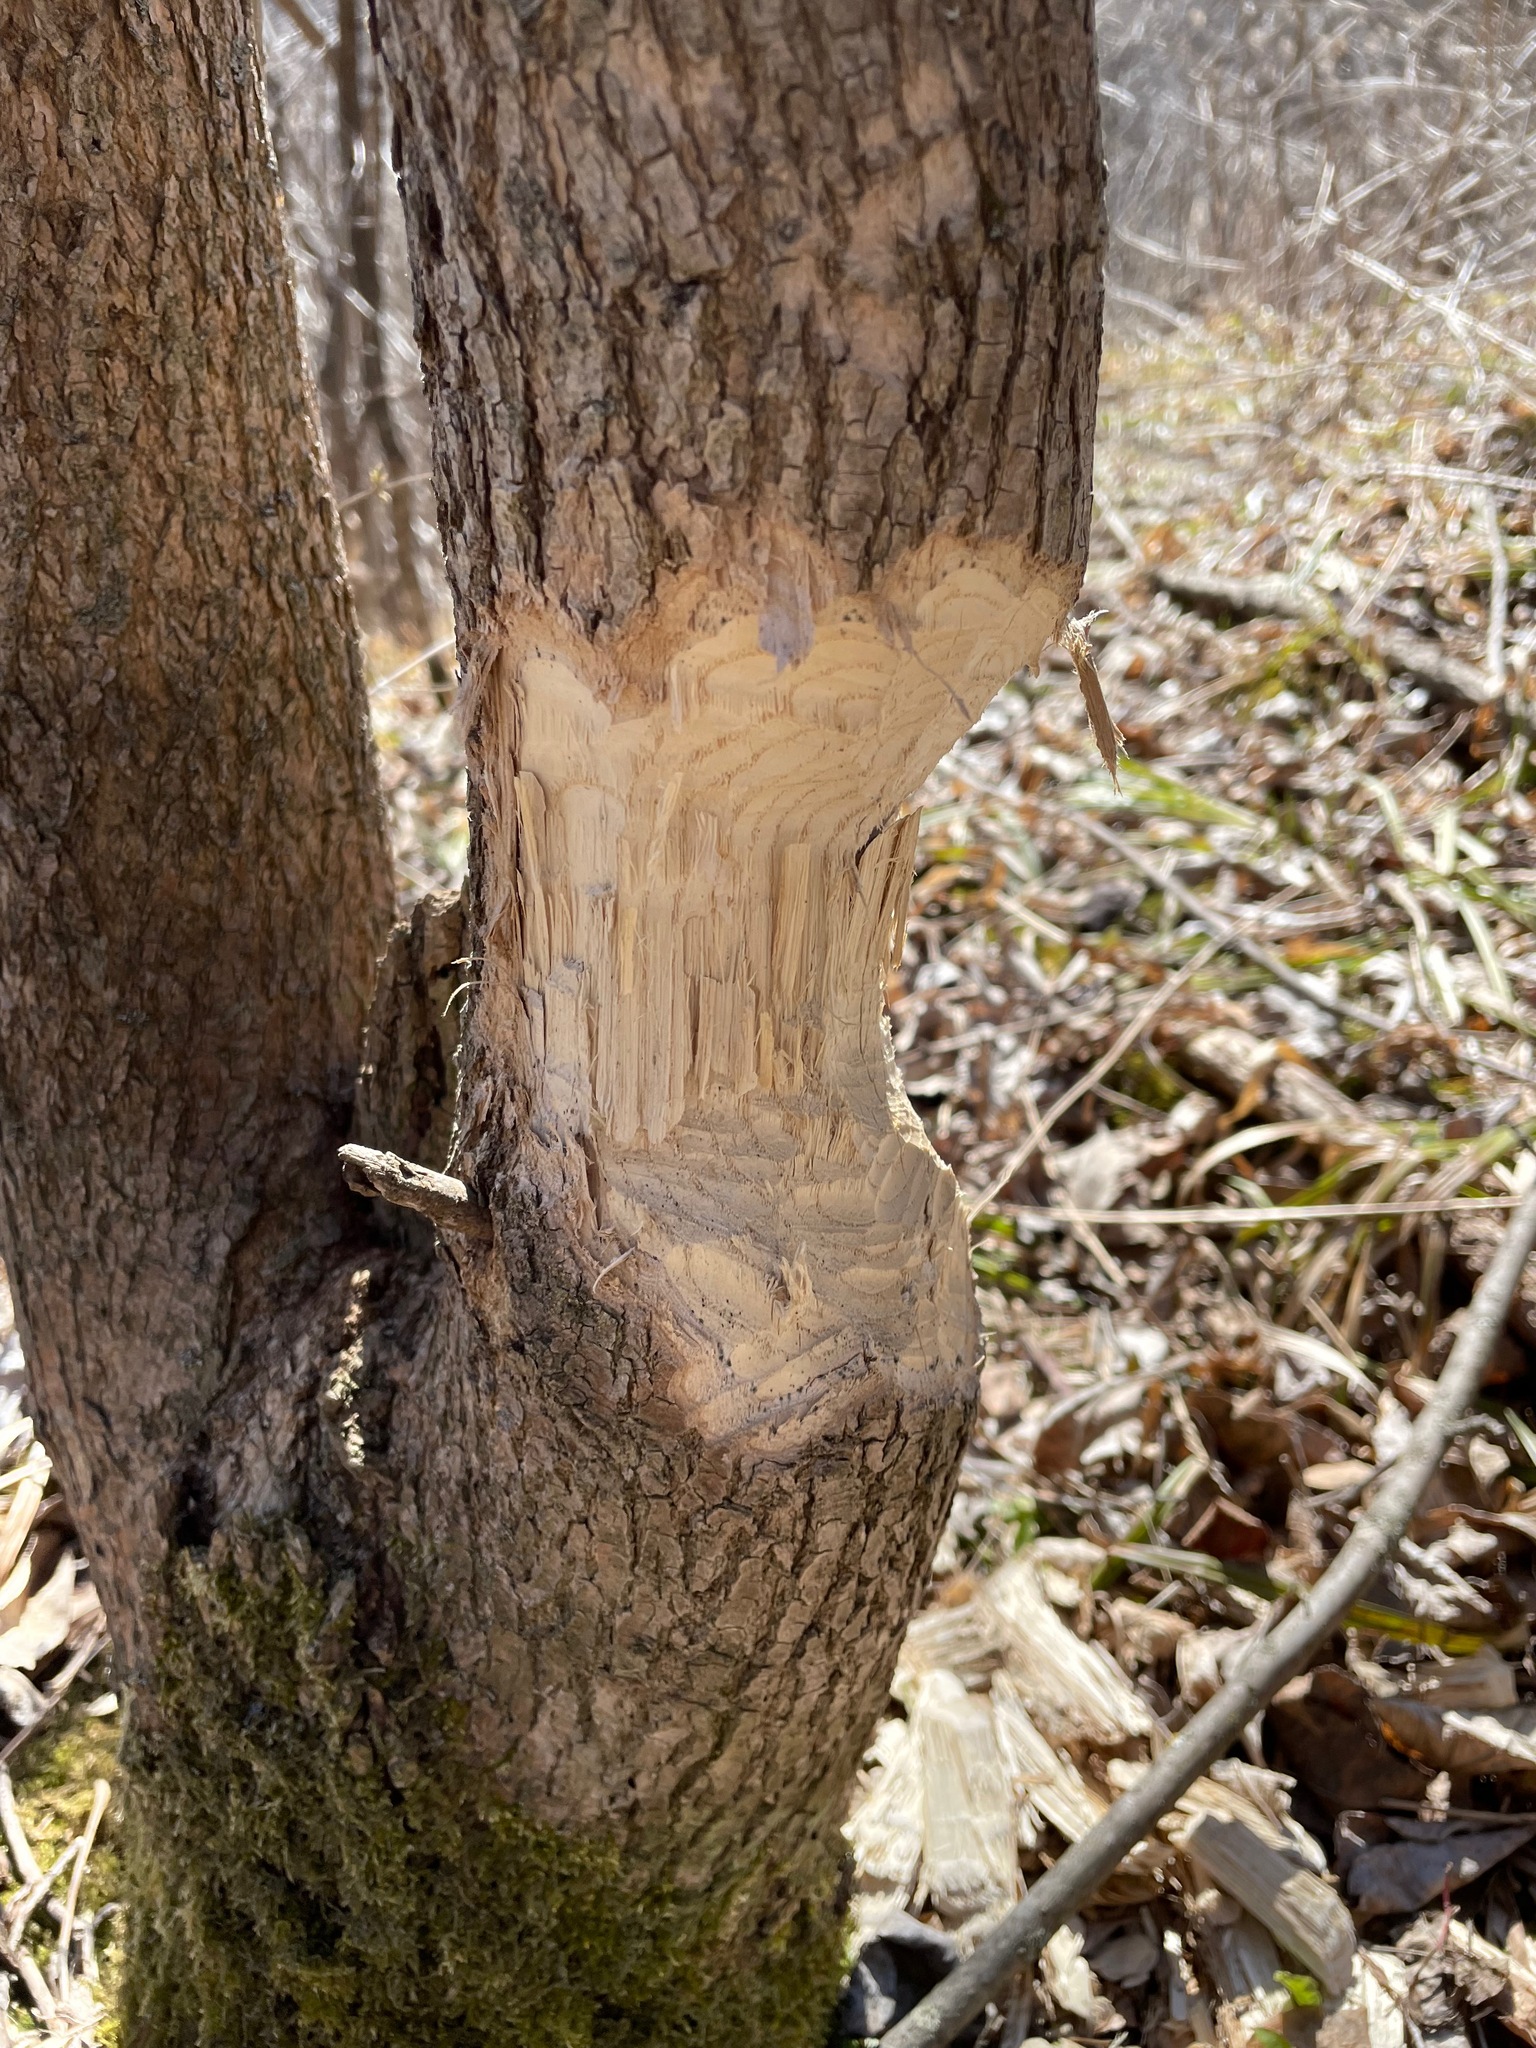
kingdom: Animalia
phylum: Chordata
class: Mammalia
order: Rodentia
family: Castoridae
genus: Castor
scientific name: Castor canadensis
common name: American beaver
